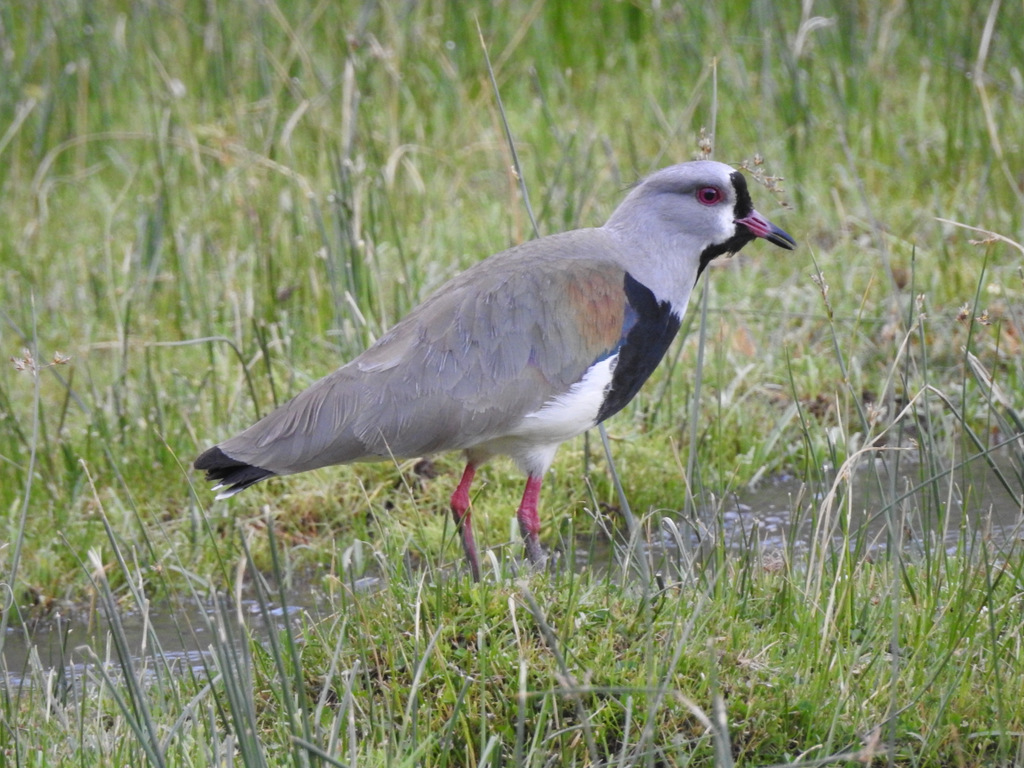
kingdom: Animalia
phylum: Chordata
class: Aves
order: Charadriiformes
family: Charadriidae
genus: Vanellus
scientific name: Vanellus chilensis
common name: Southern lapwing
